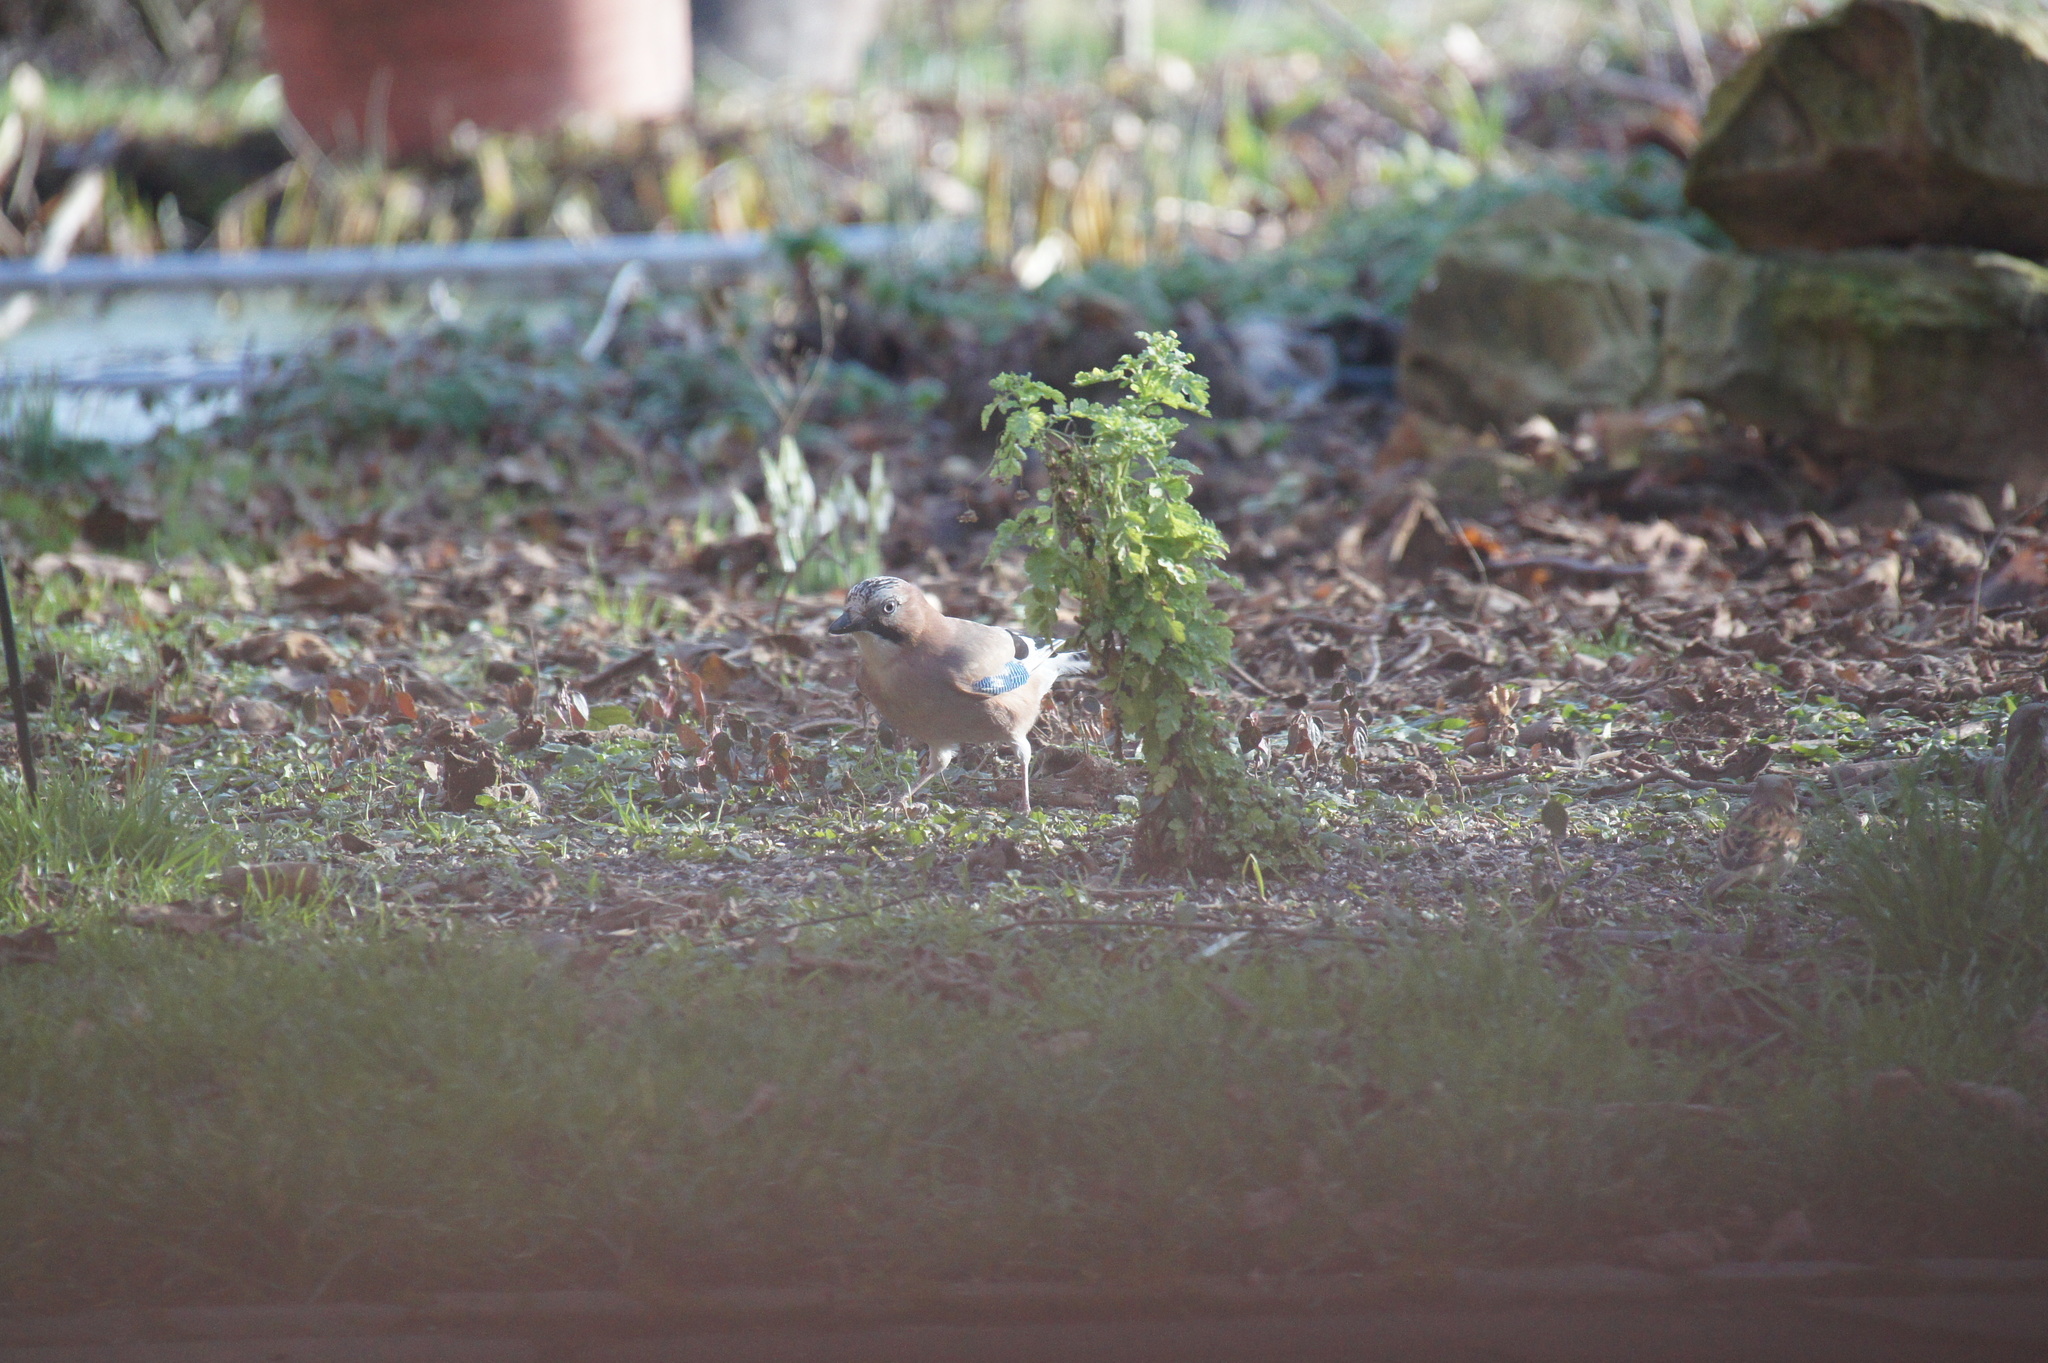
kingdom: Animalia
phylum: Chordata
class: Aves
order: Passeriformes
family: Corvidae
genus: Garrulus
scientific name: Garrulus glandarius
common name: Eurasian jay
